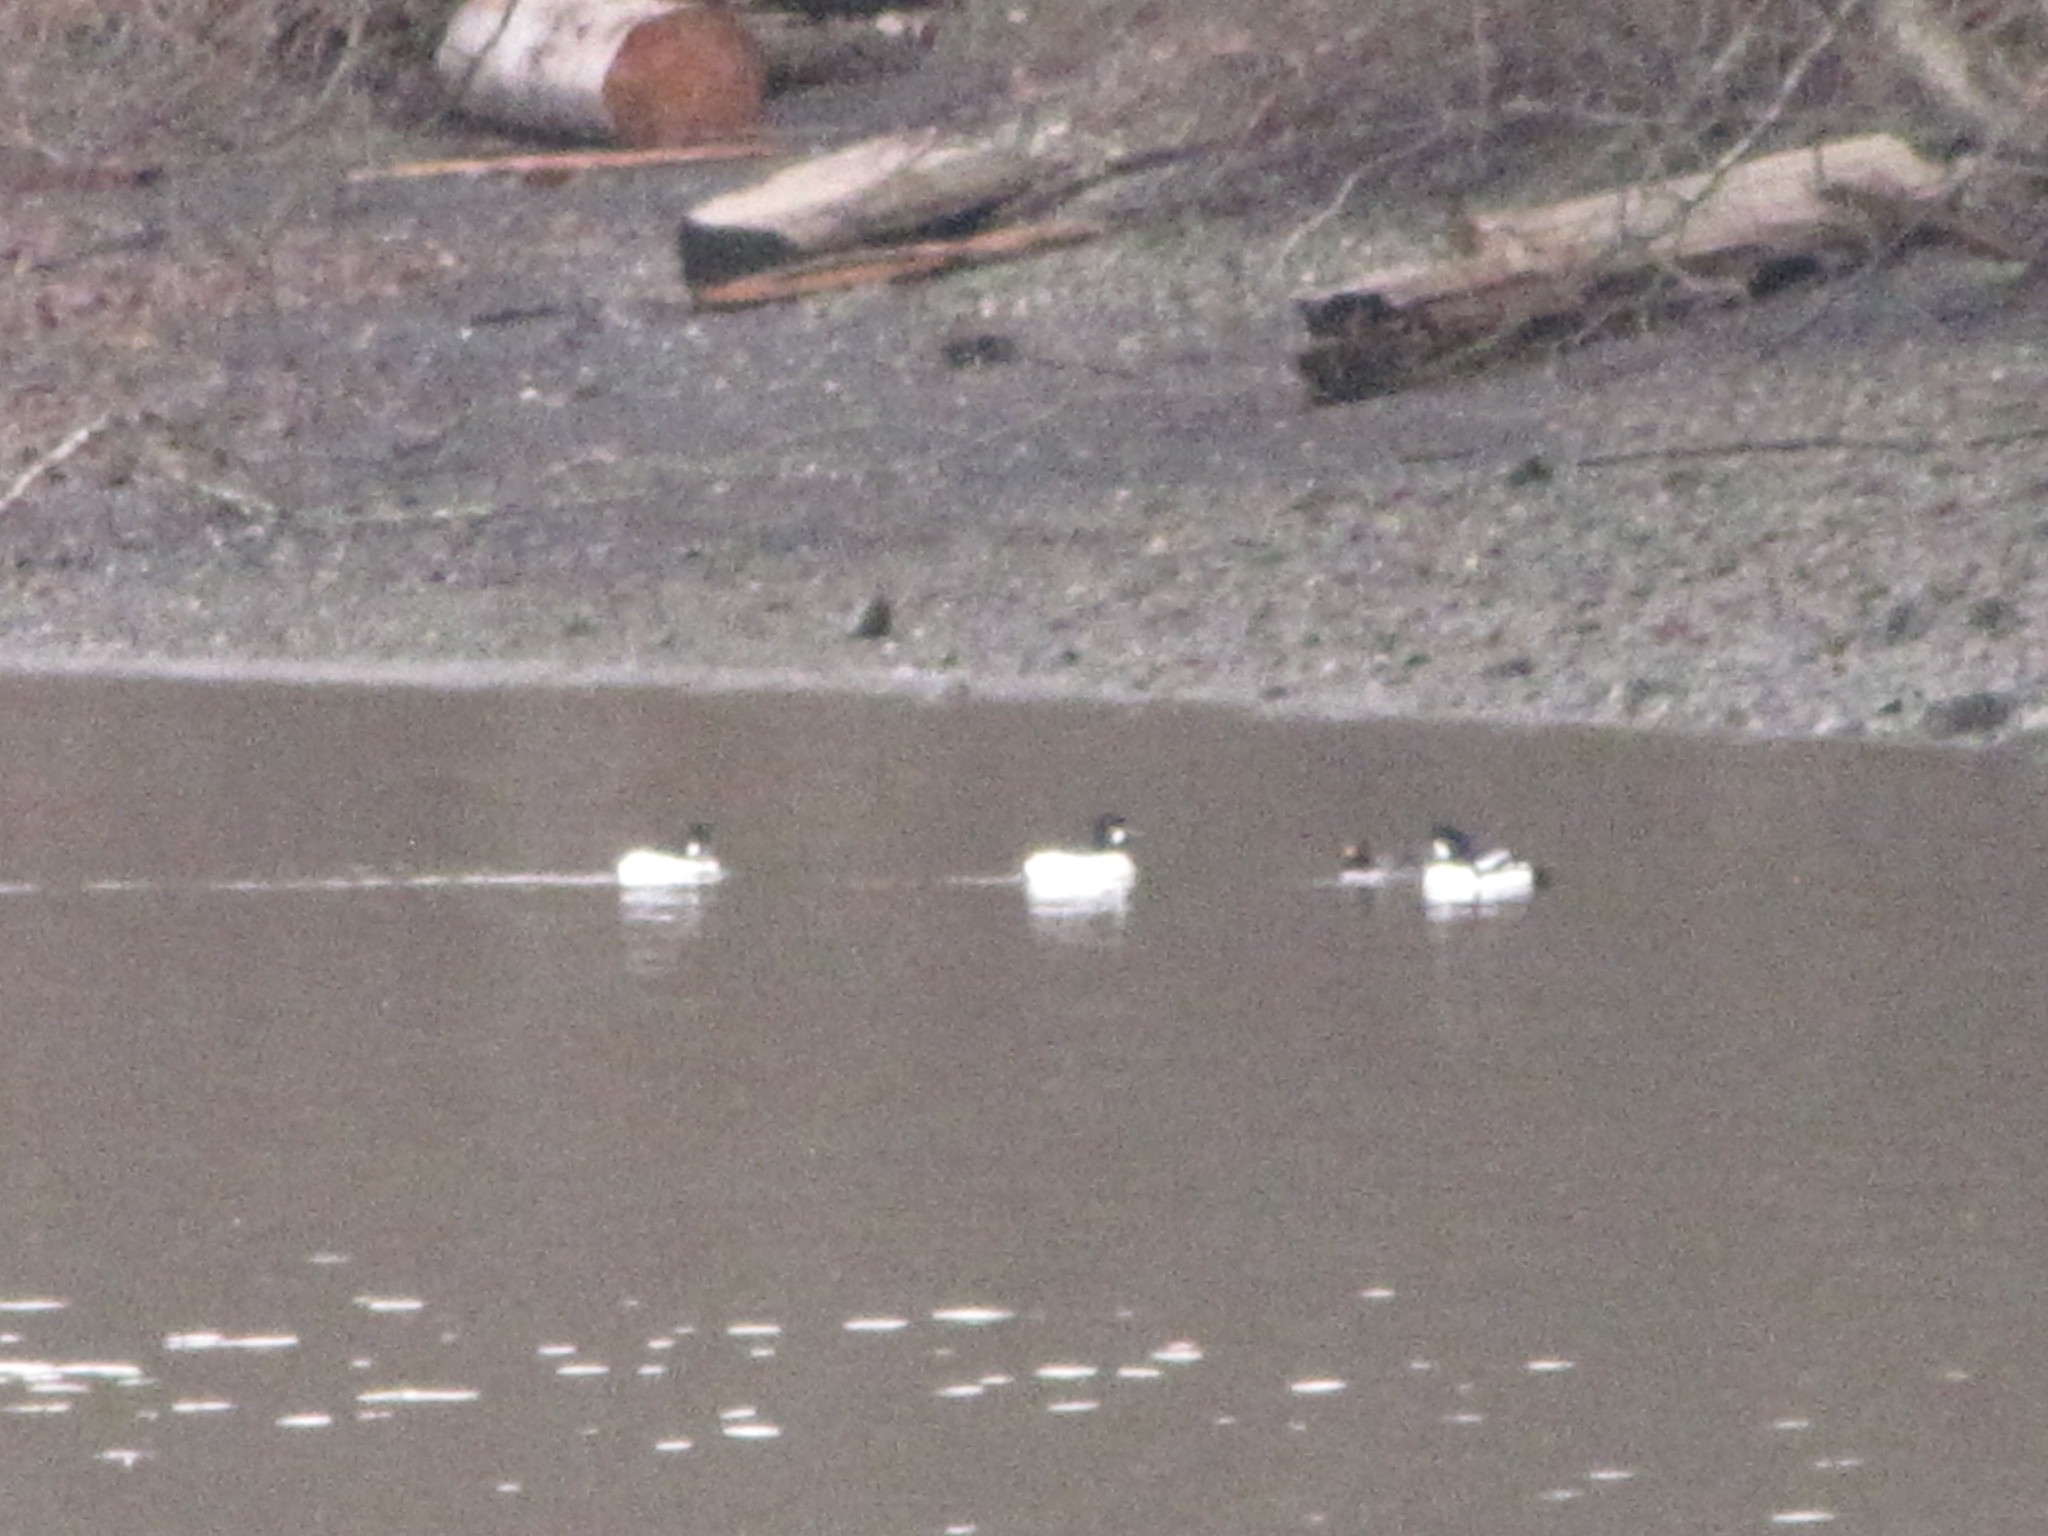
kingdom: Animalia
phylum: Chordata
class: Aves
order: Anseriformes
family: Anatidae
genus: Bucephala
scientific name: Bucephala clangula
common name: Common goldeneye
